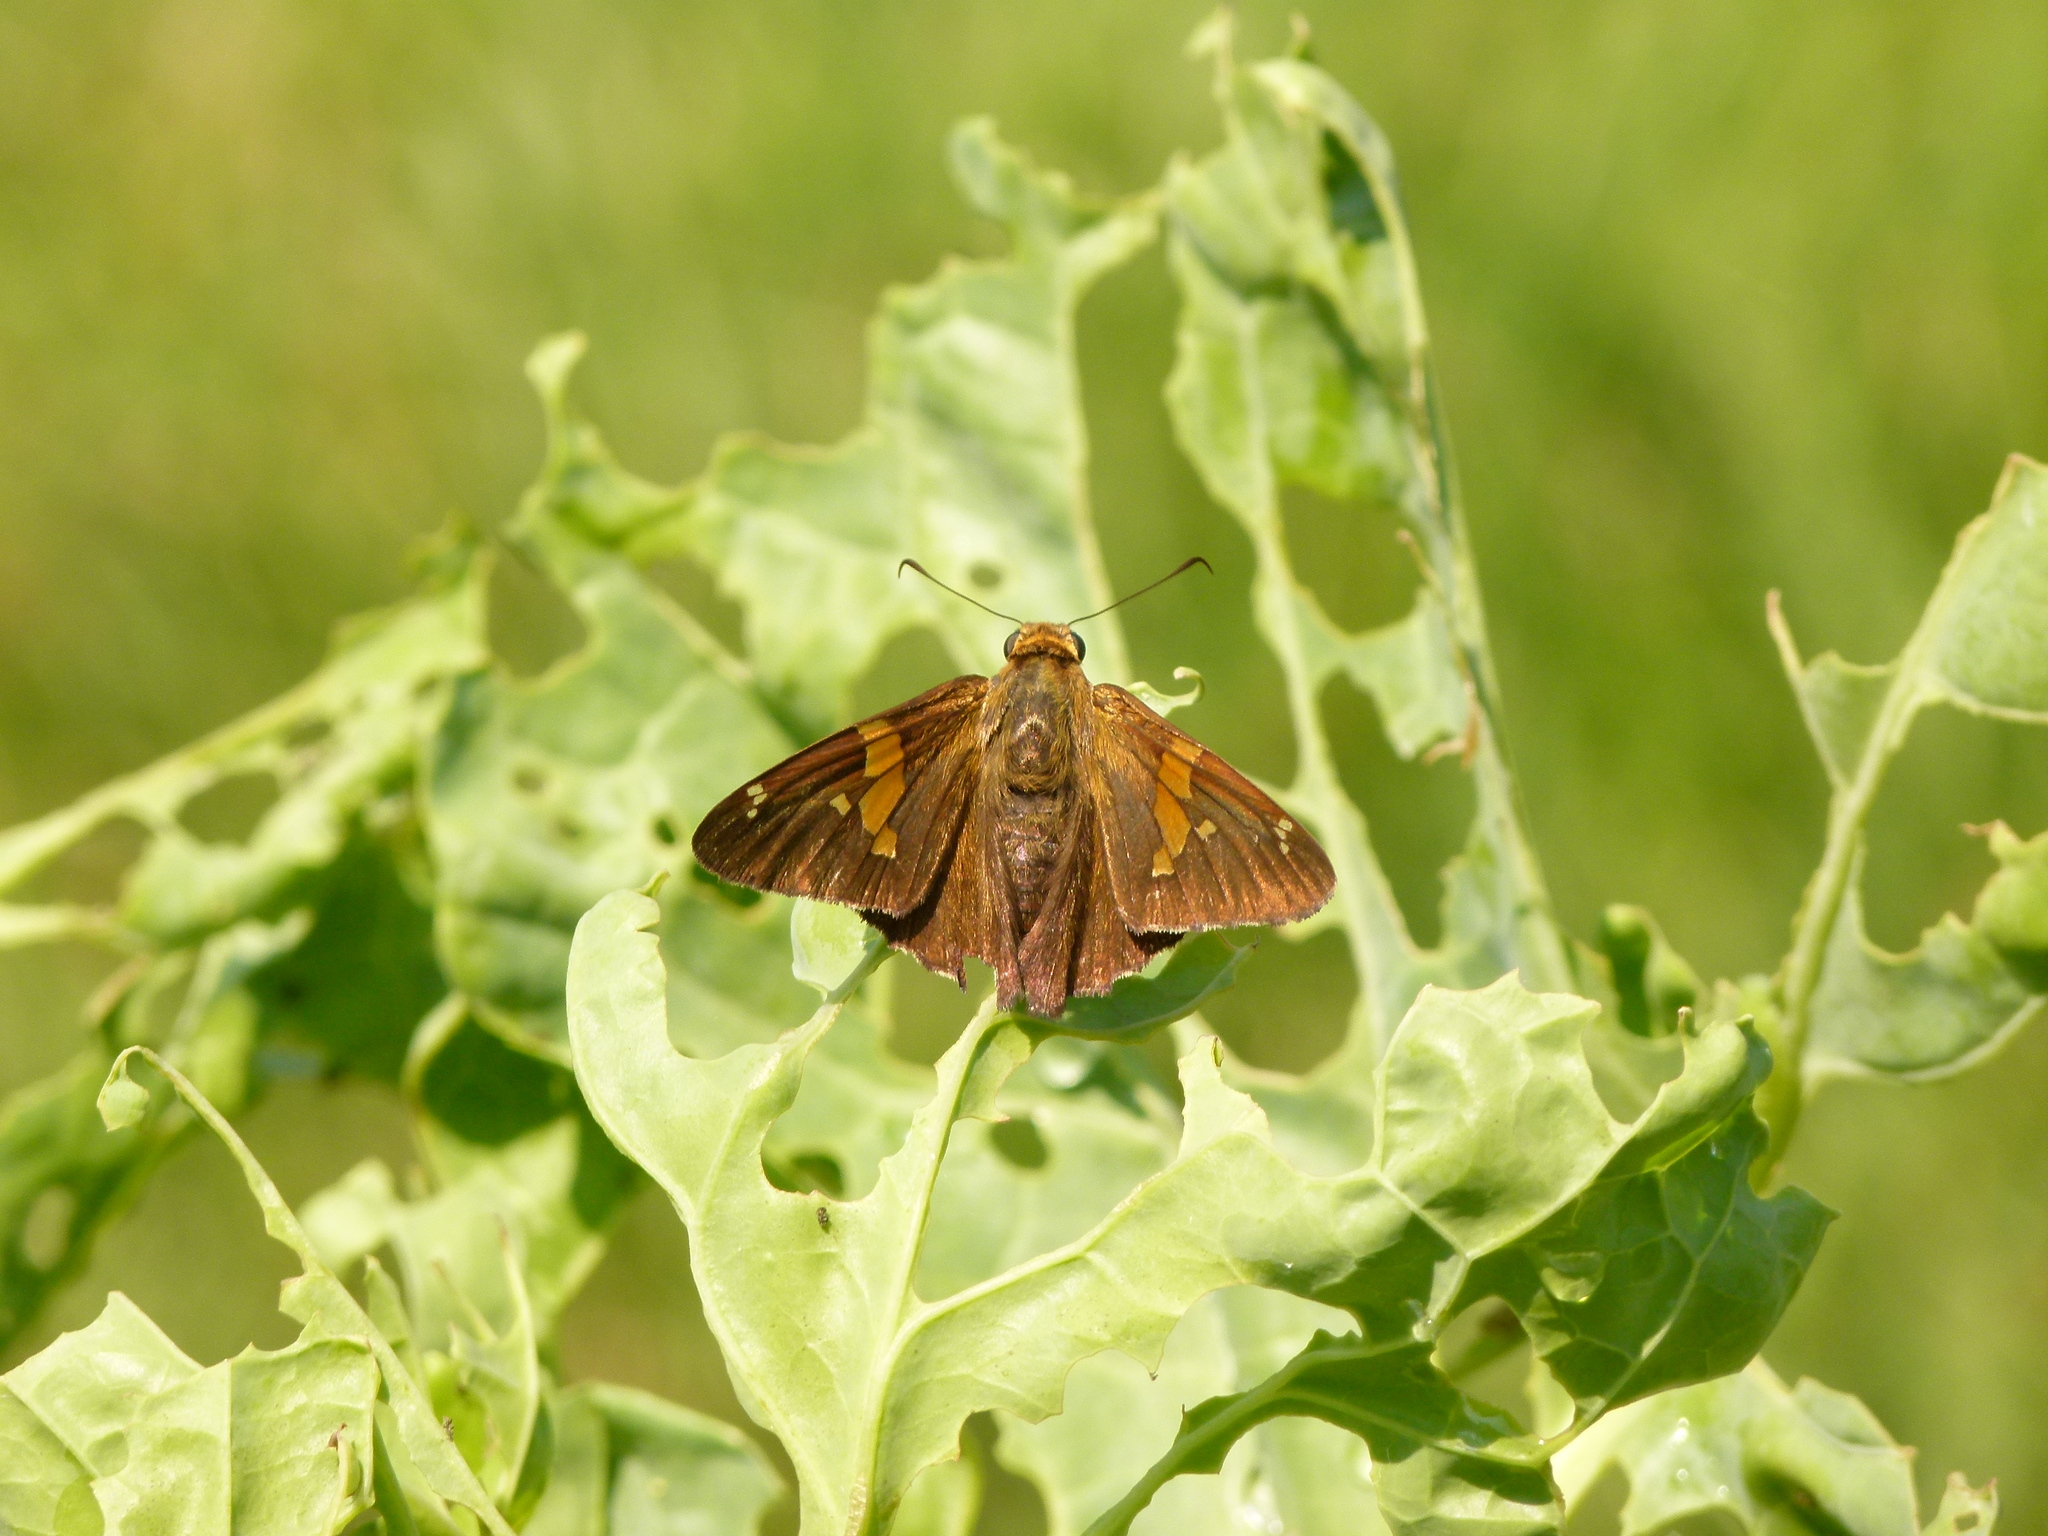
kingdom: Animalia
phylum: Arthropoda
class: Insecta
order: Lepidoptera
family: Hesperiidae
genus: Epargyreus
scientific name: Epargyreus clarus
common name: Silver-spotted skipper
